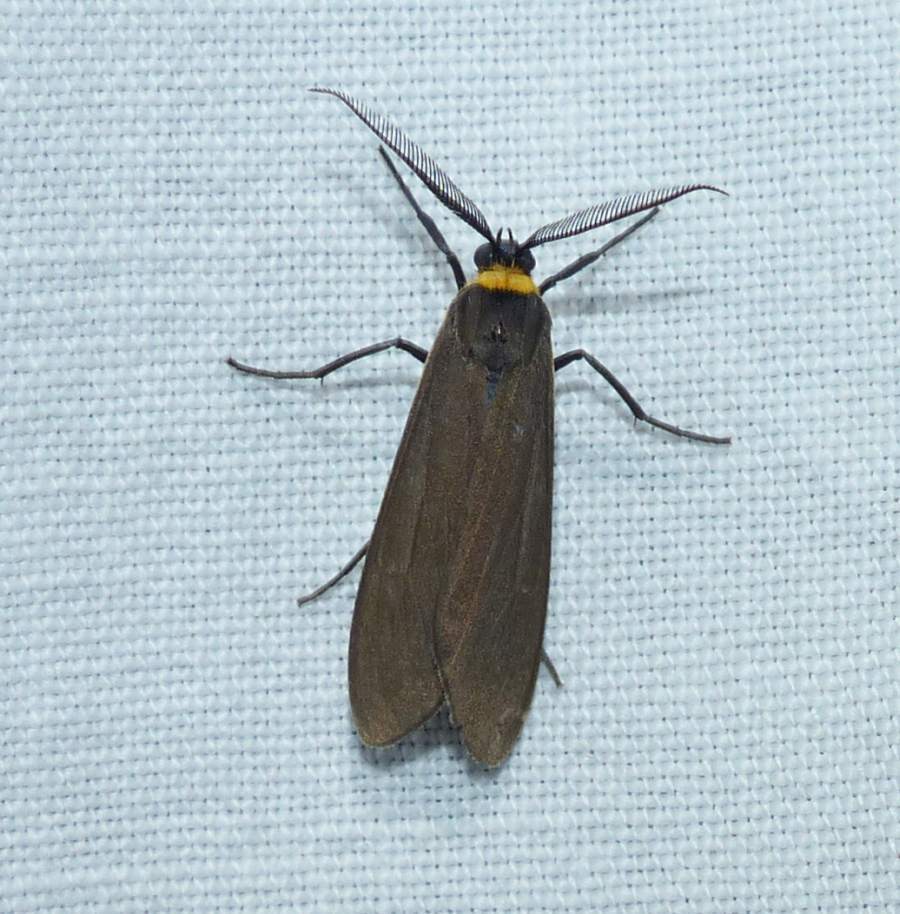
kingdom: Animalia
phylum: Arthropoda
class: Insecta
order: Lepidoptera
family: Erebidae
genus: Cisseps
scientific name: Cisseps fulvicollis
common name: Yellow-collared scape moth
